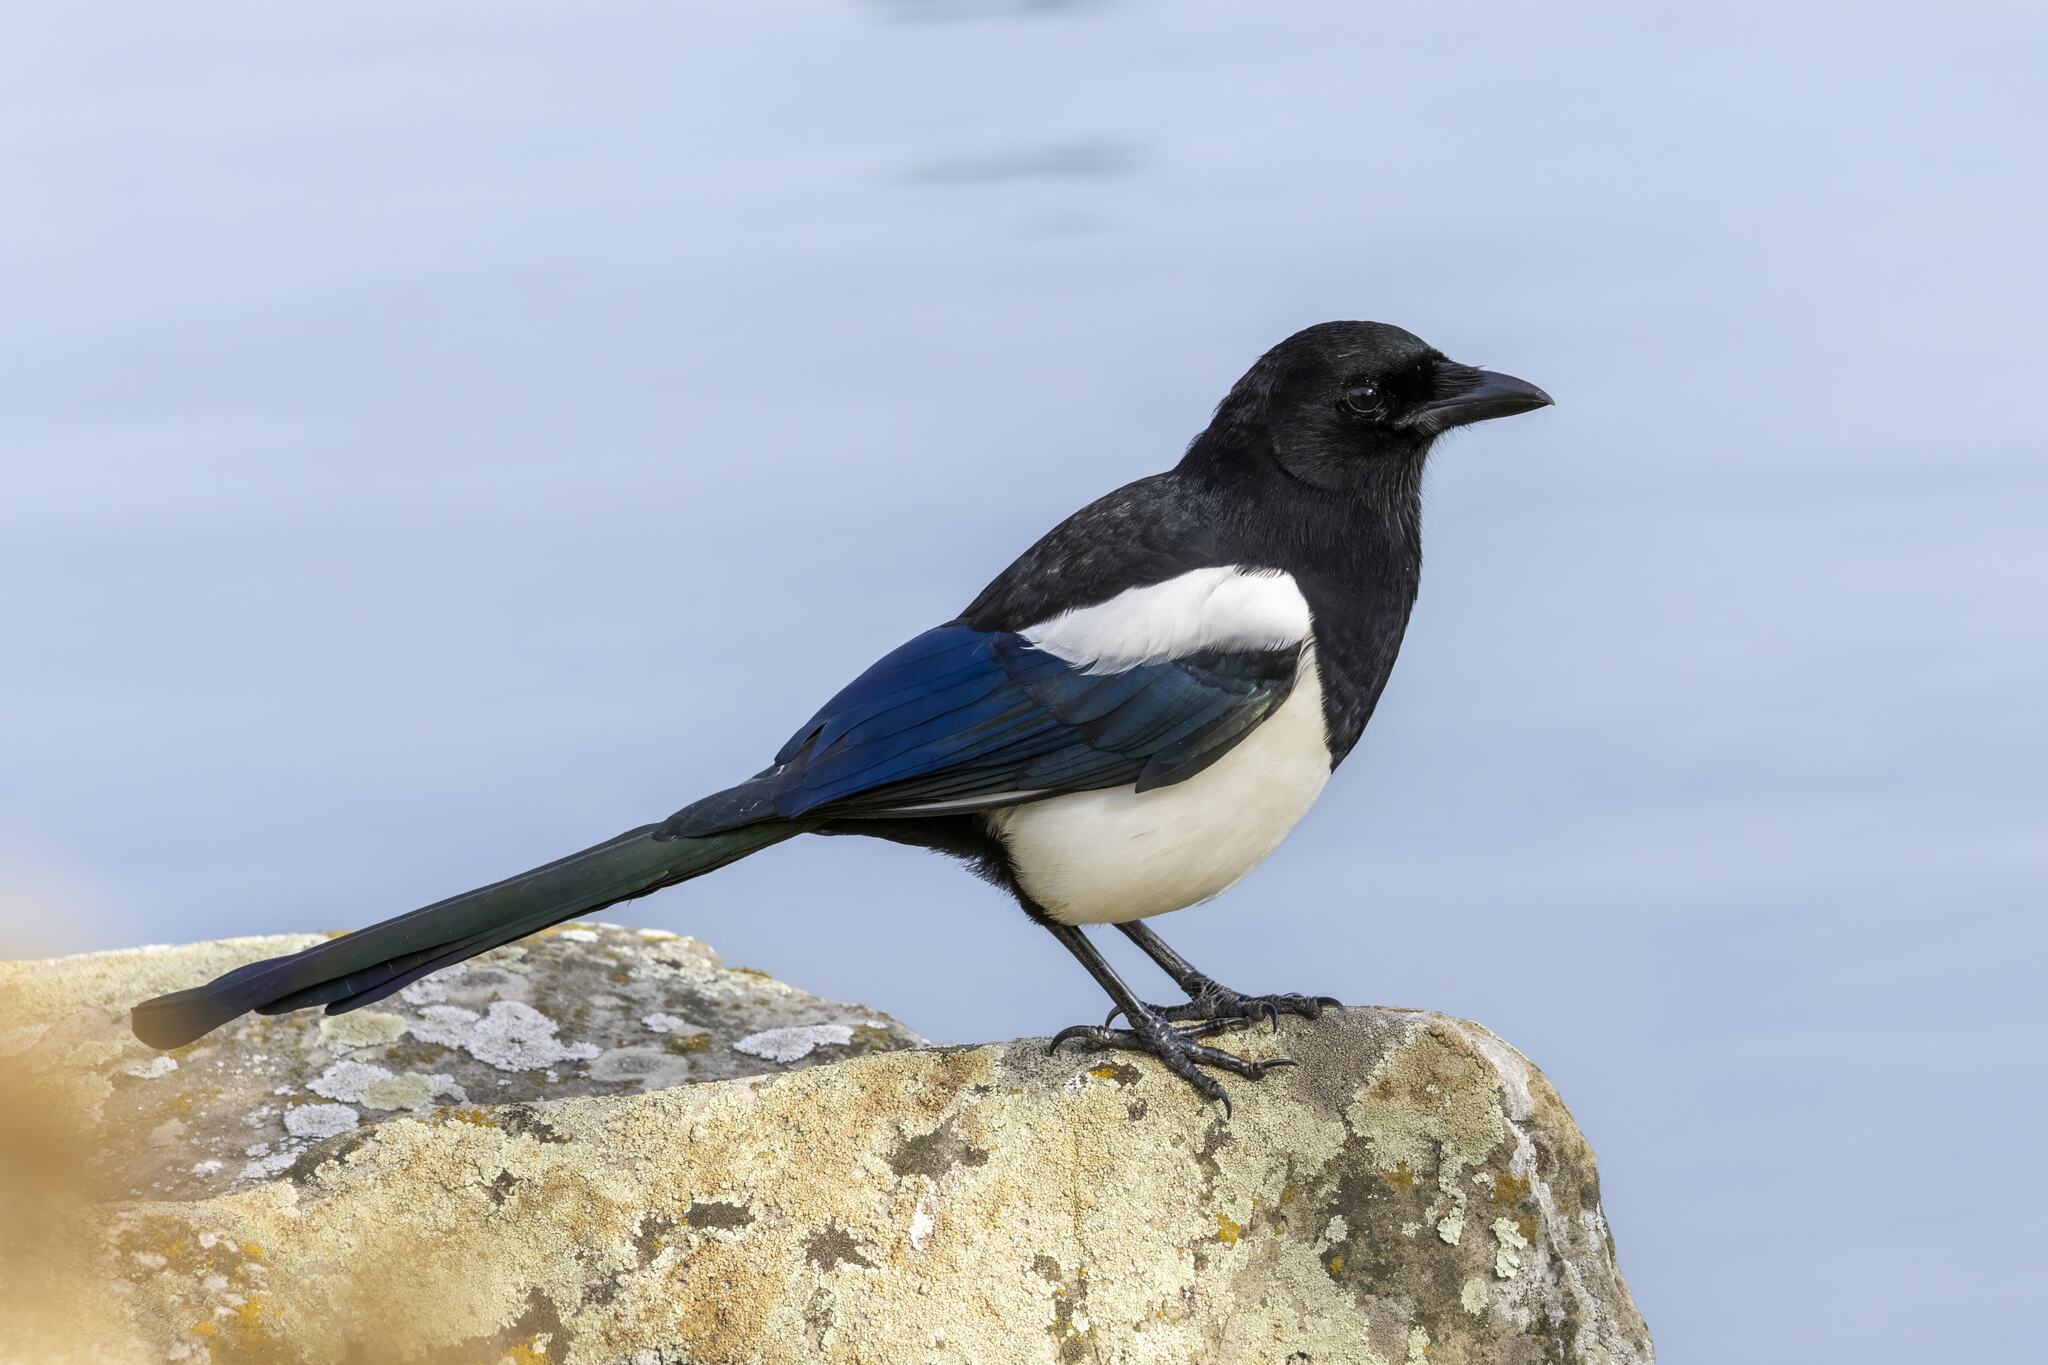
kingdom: Animalia
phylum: Chordata
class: Aves
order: Passeriformes
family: Corvidae
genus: Pica
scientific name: Pica pica
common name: Eurasian magpie
